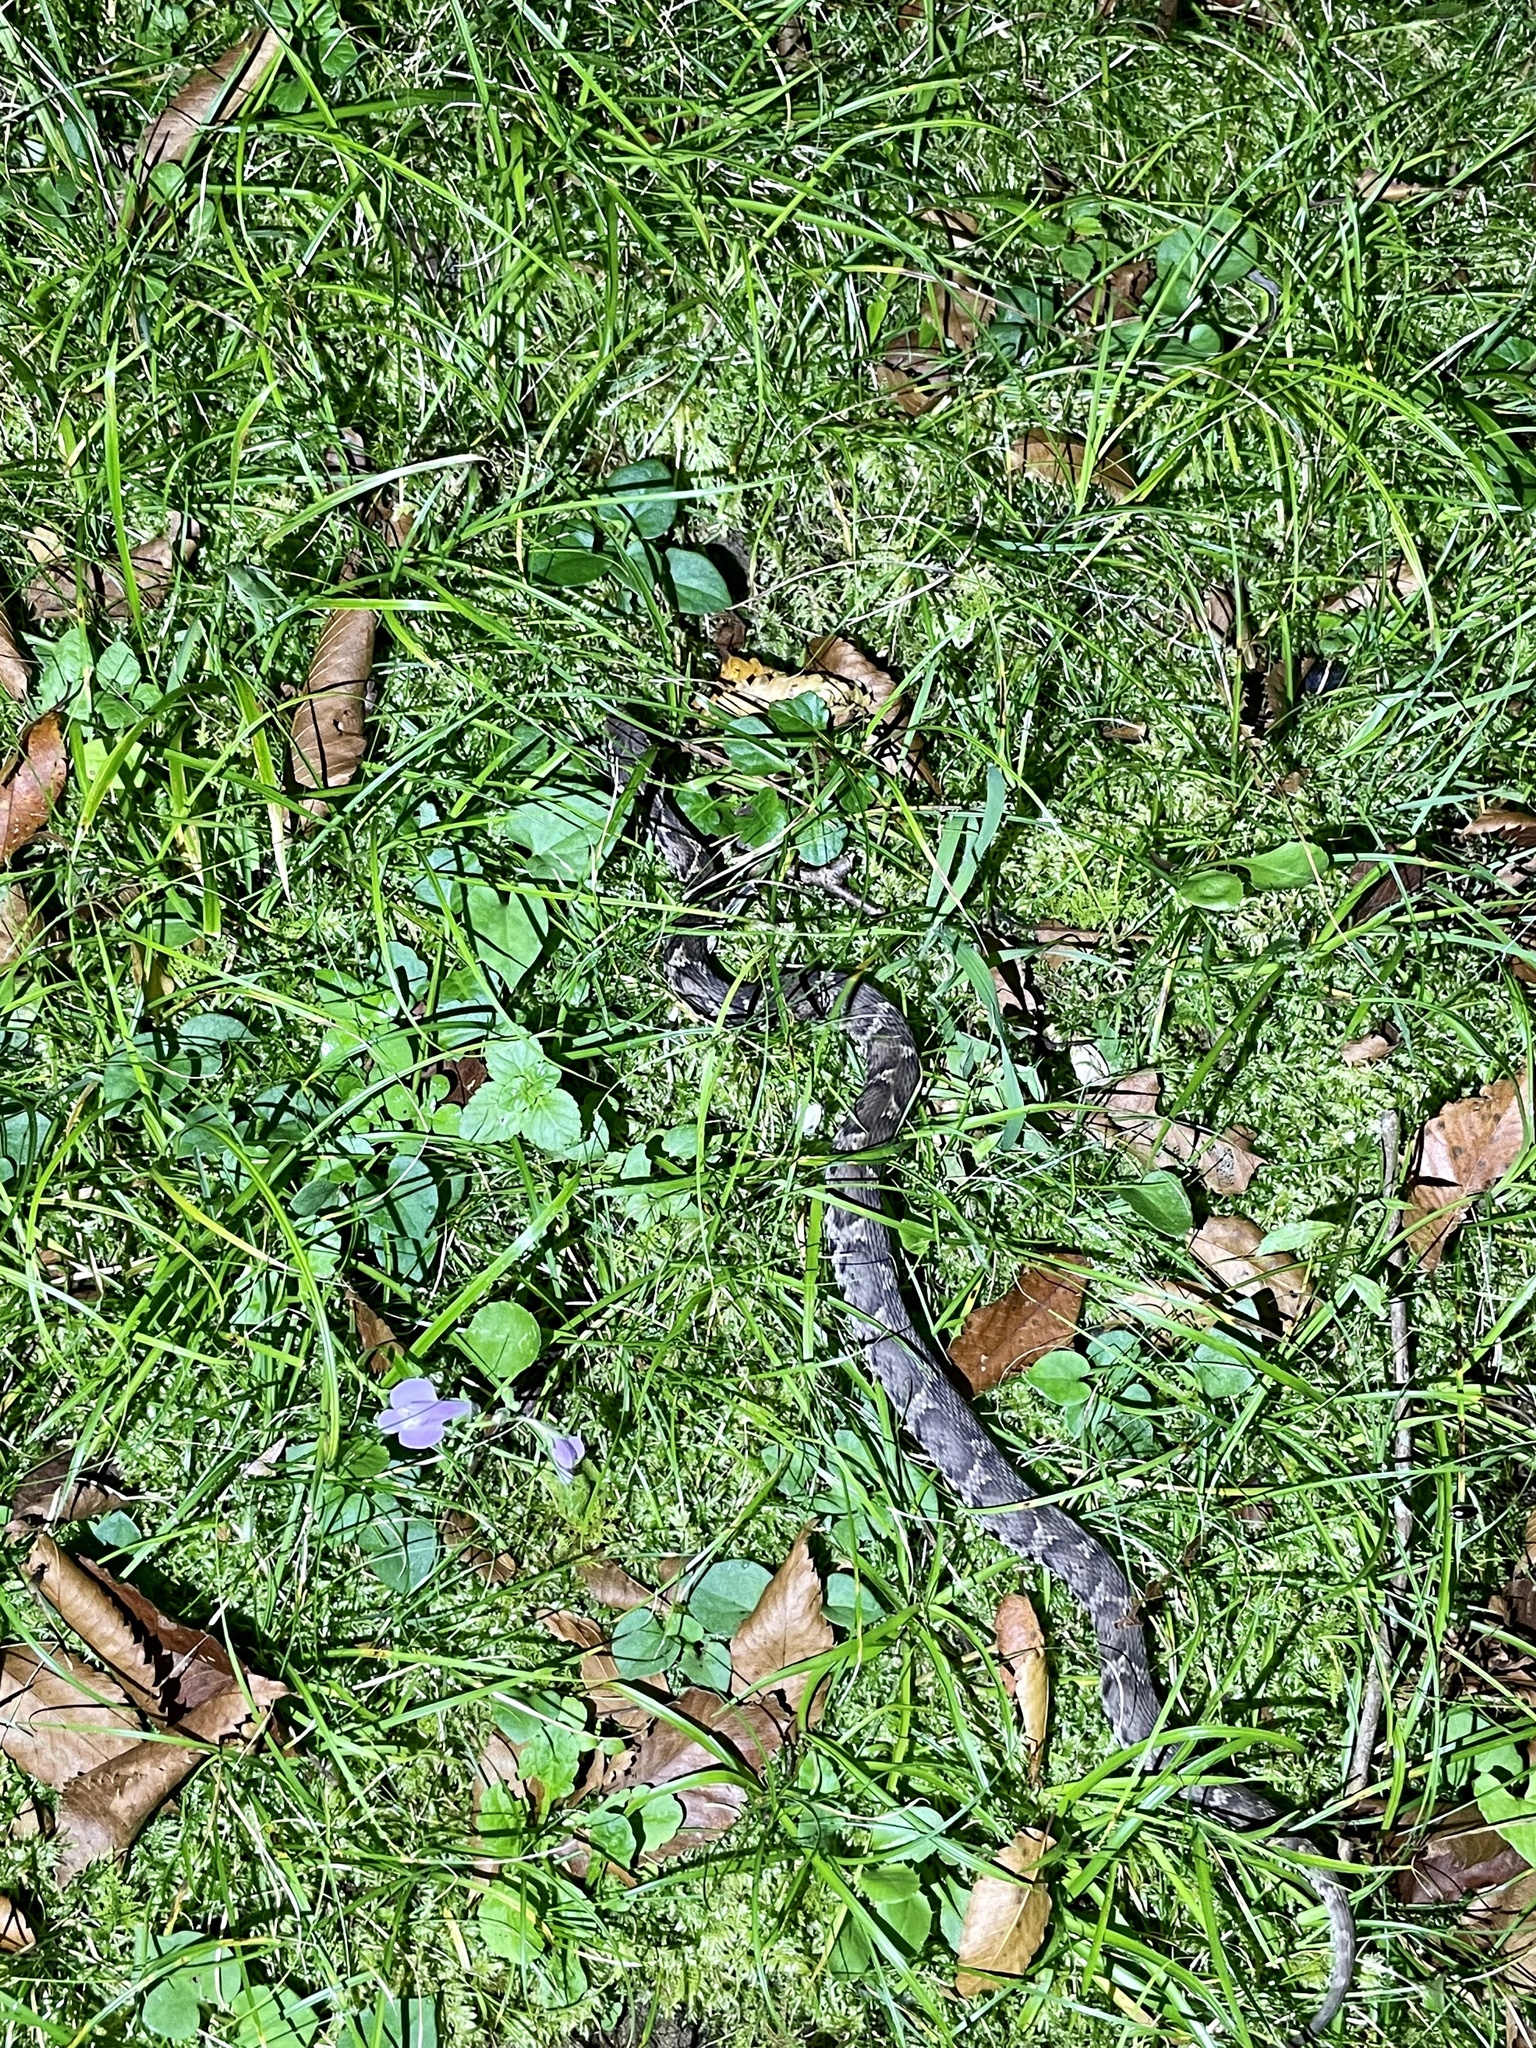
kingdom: Animalia
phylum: Chordata
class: Squamata
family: Viperidae
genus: Gloydius
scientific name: Gloydius blomhoffii
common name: Mamushi
